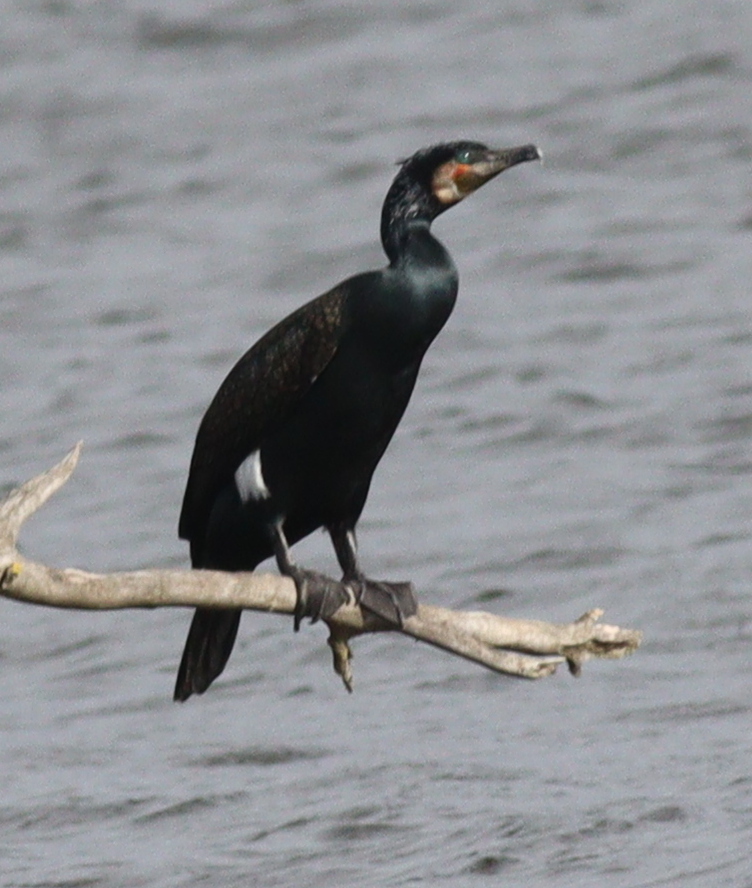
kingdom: Animalia
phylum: Chordata
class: Aves
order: Suliformes
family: Phalacrocoracidae
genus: Phalacrocorax
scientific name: Phalacrocorax carbo
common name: Great cormorant
